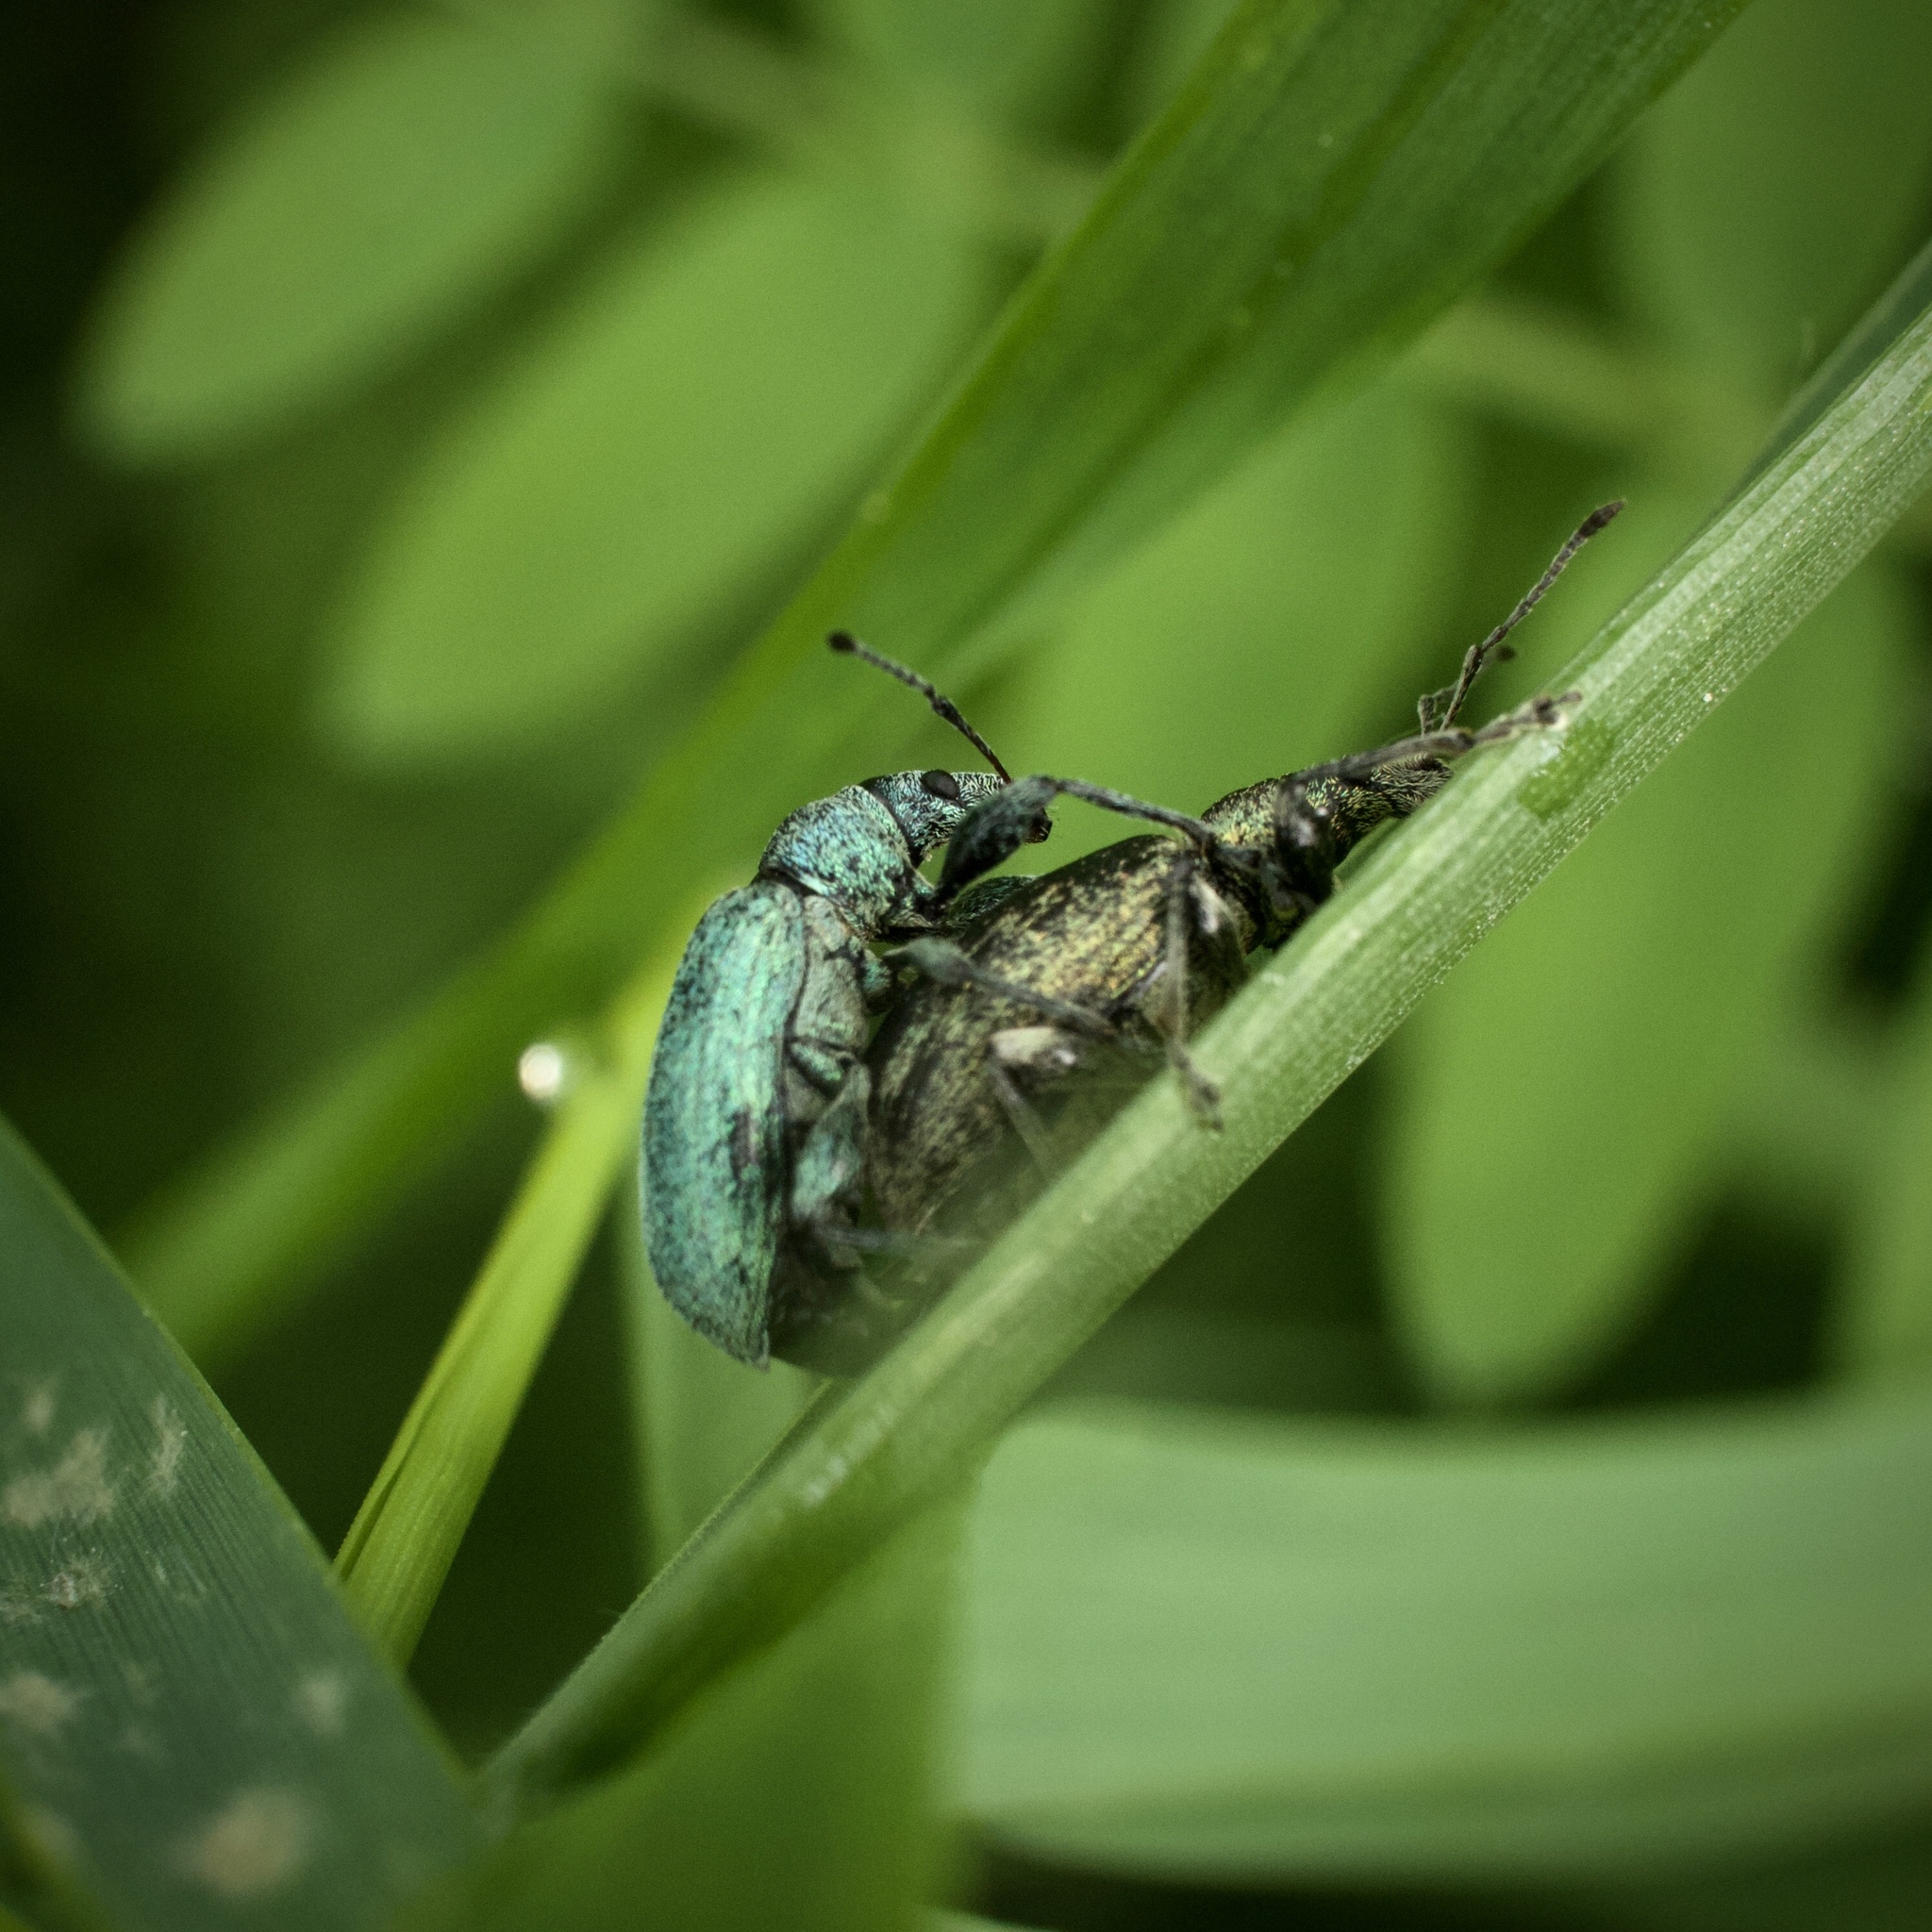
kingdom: Animalia
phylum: Arthropoda
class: Insecta
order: Coleoptera
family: Curculionidae
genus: Phyllobius
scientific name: Phyllobius pomaceus
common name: Green nettle weevil
